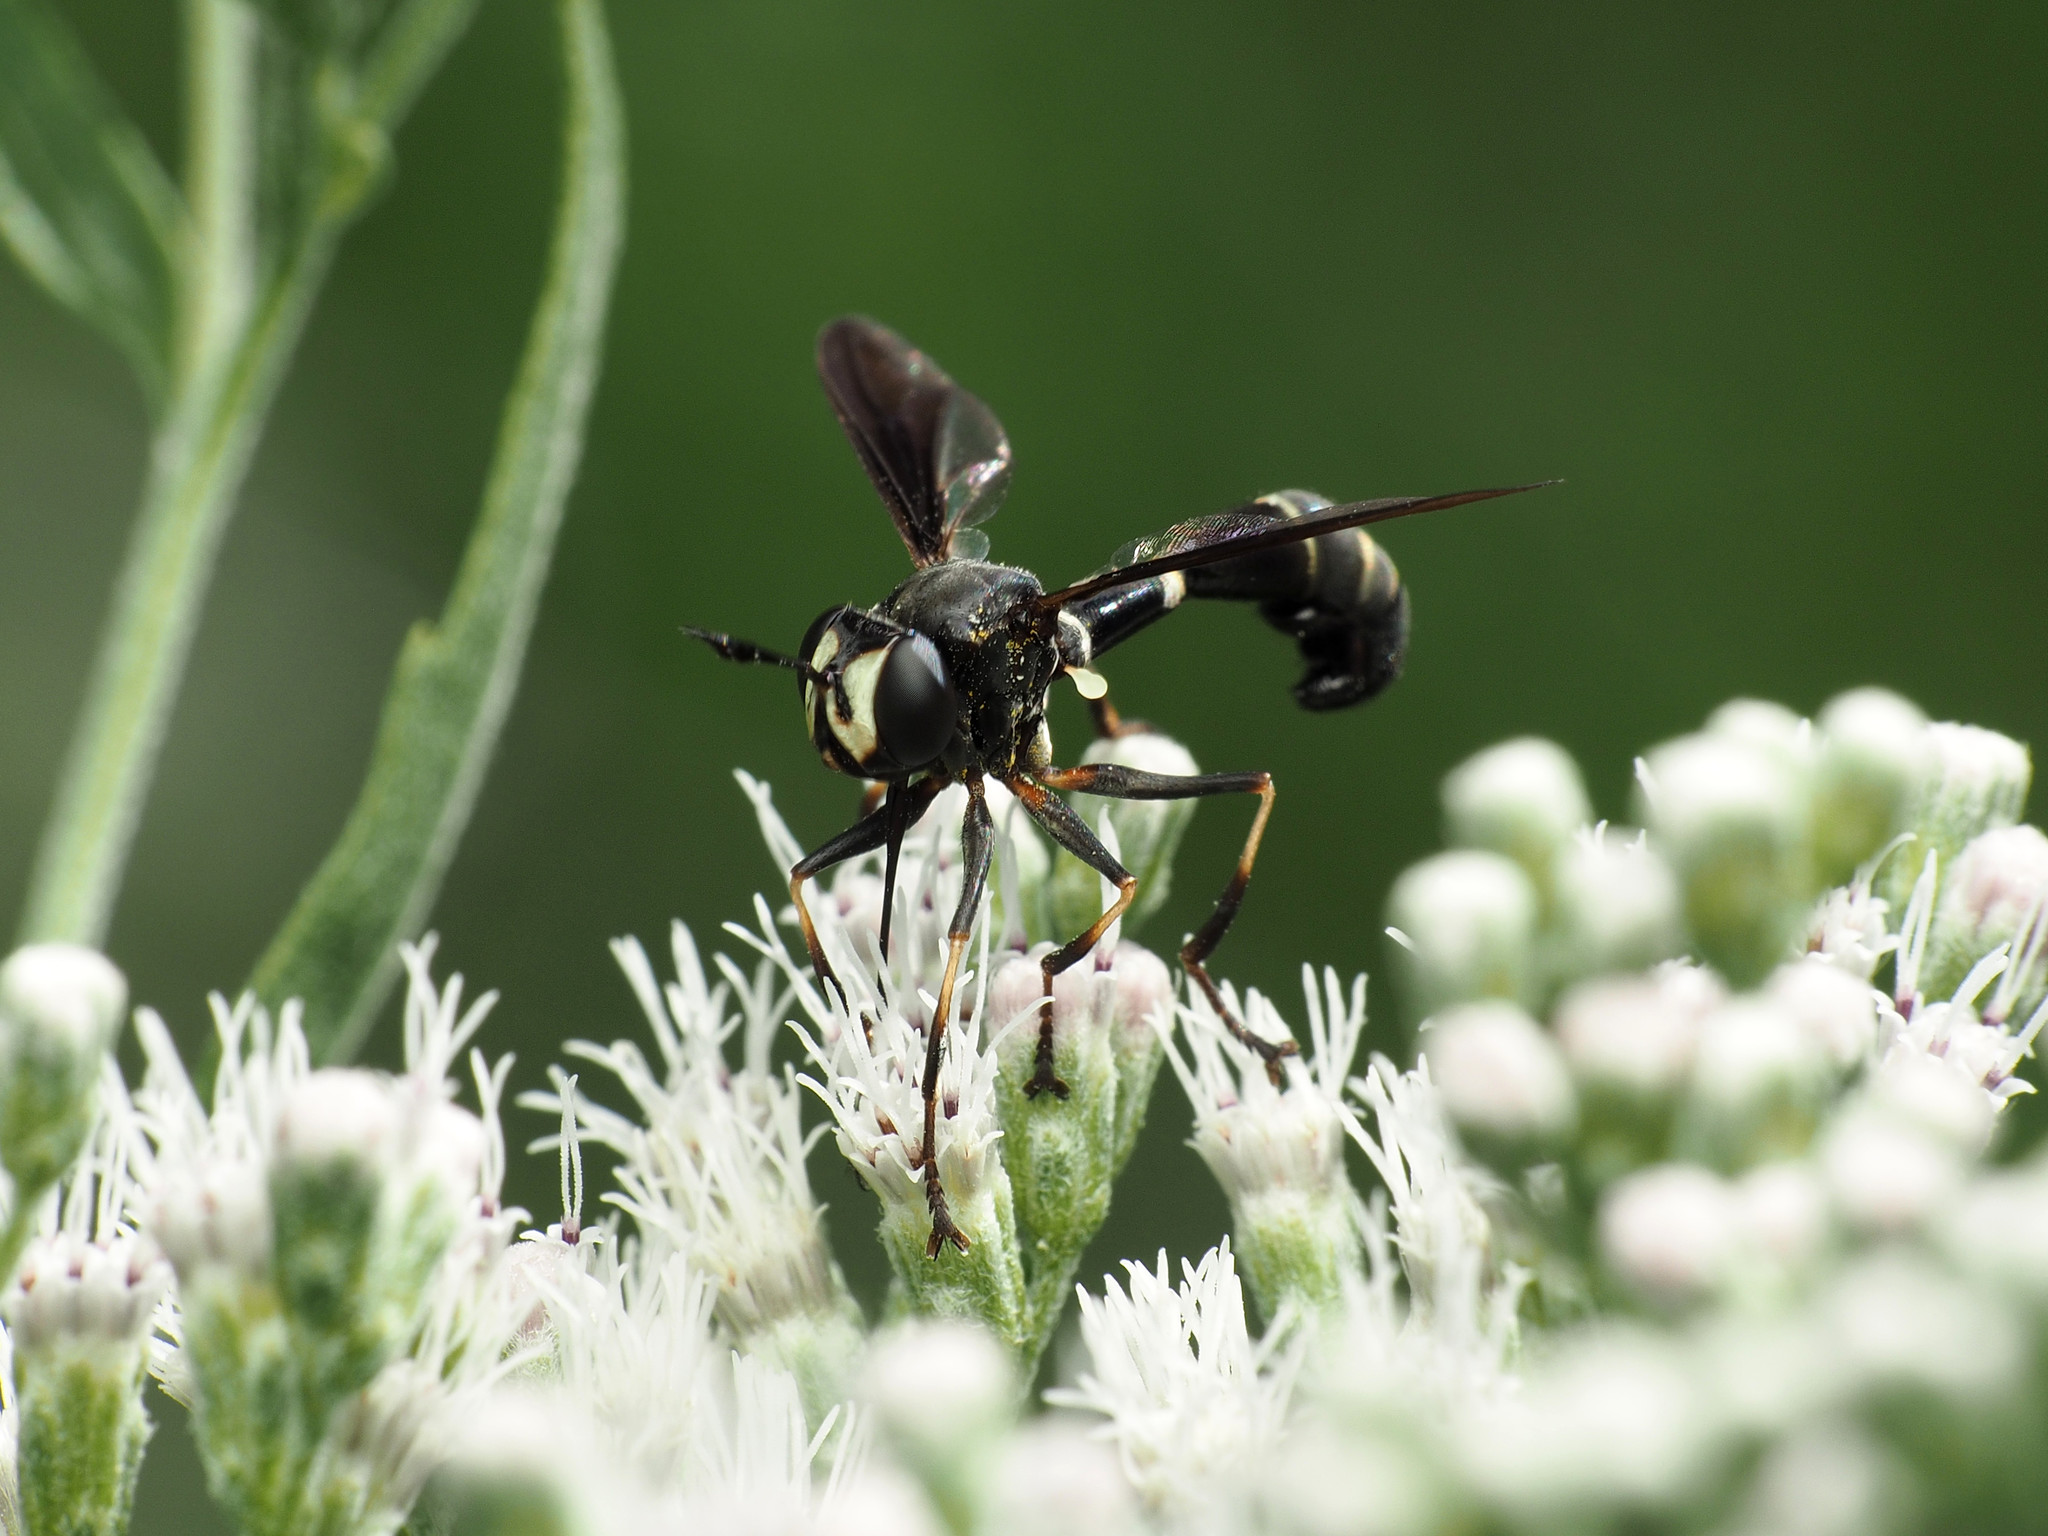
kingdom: Animalia
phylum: Arthropoda
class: Insecta
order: Diptera
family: Conopidae
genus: Physocephala
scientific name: Physocephala tibialis
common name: Common eastern physocephala
